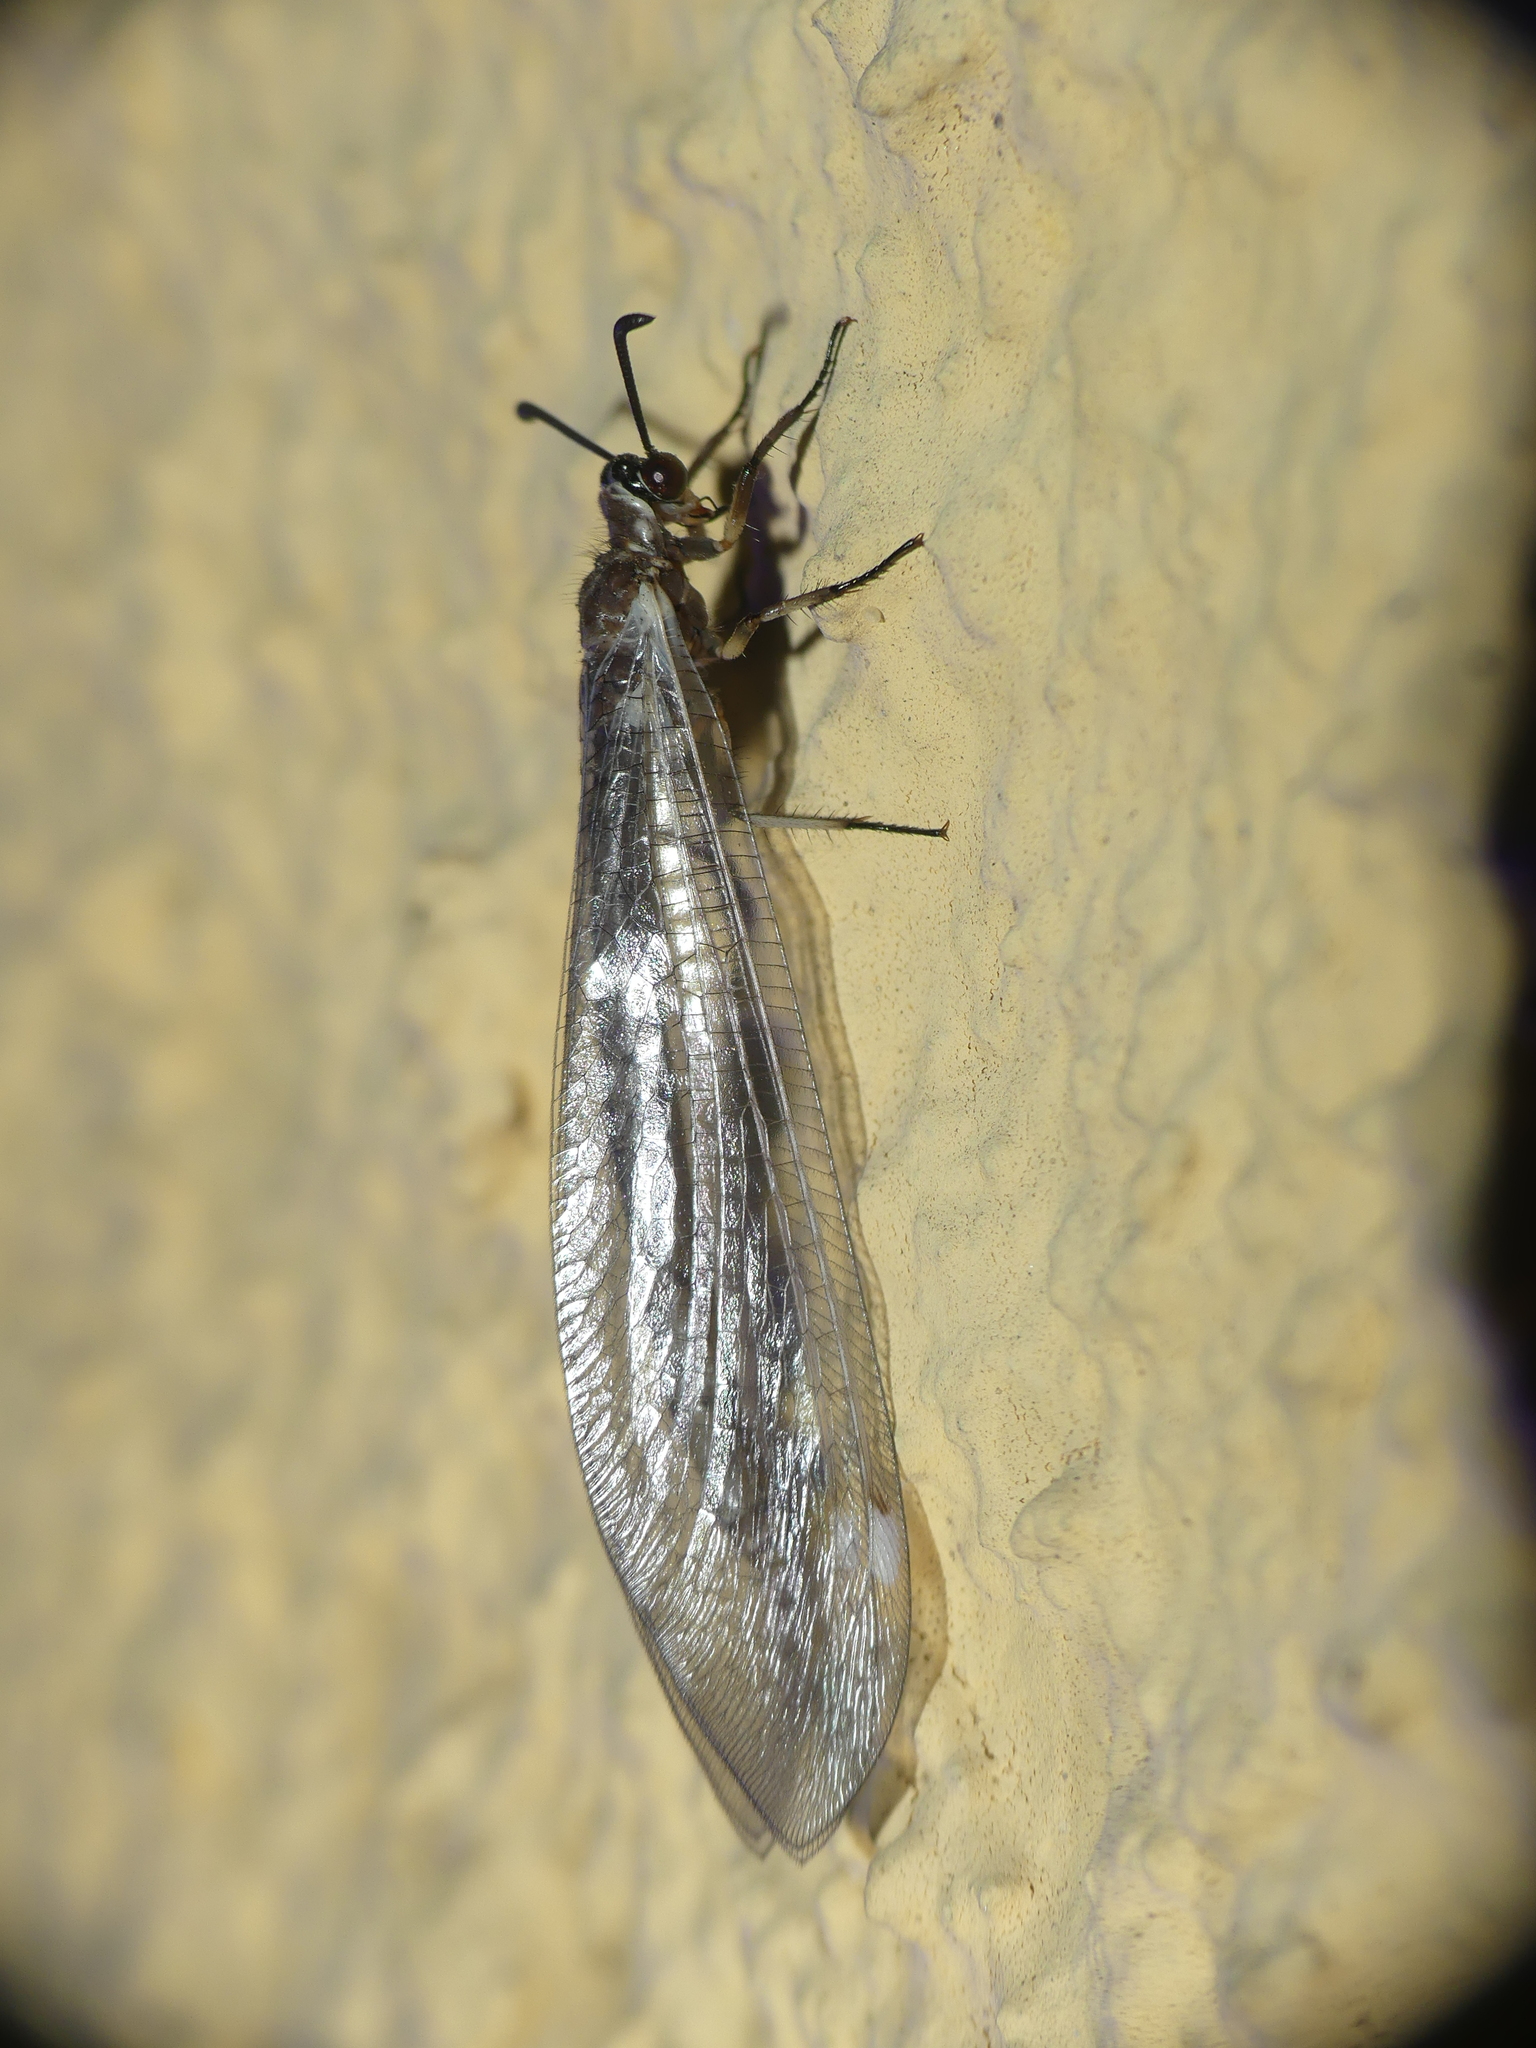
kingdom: Animalia
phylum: Arthropoda
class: Insecta
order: Neuroptera
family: Myrmeleontidae
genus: Myrmeleon
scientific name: Myrmeleon formicarius
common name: Ant-lion
